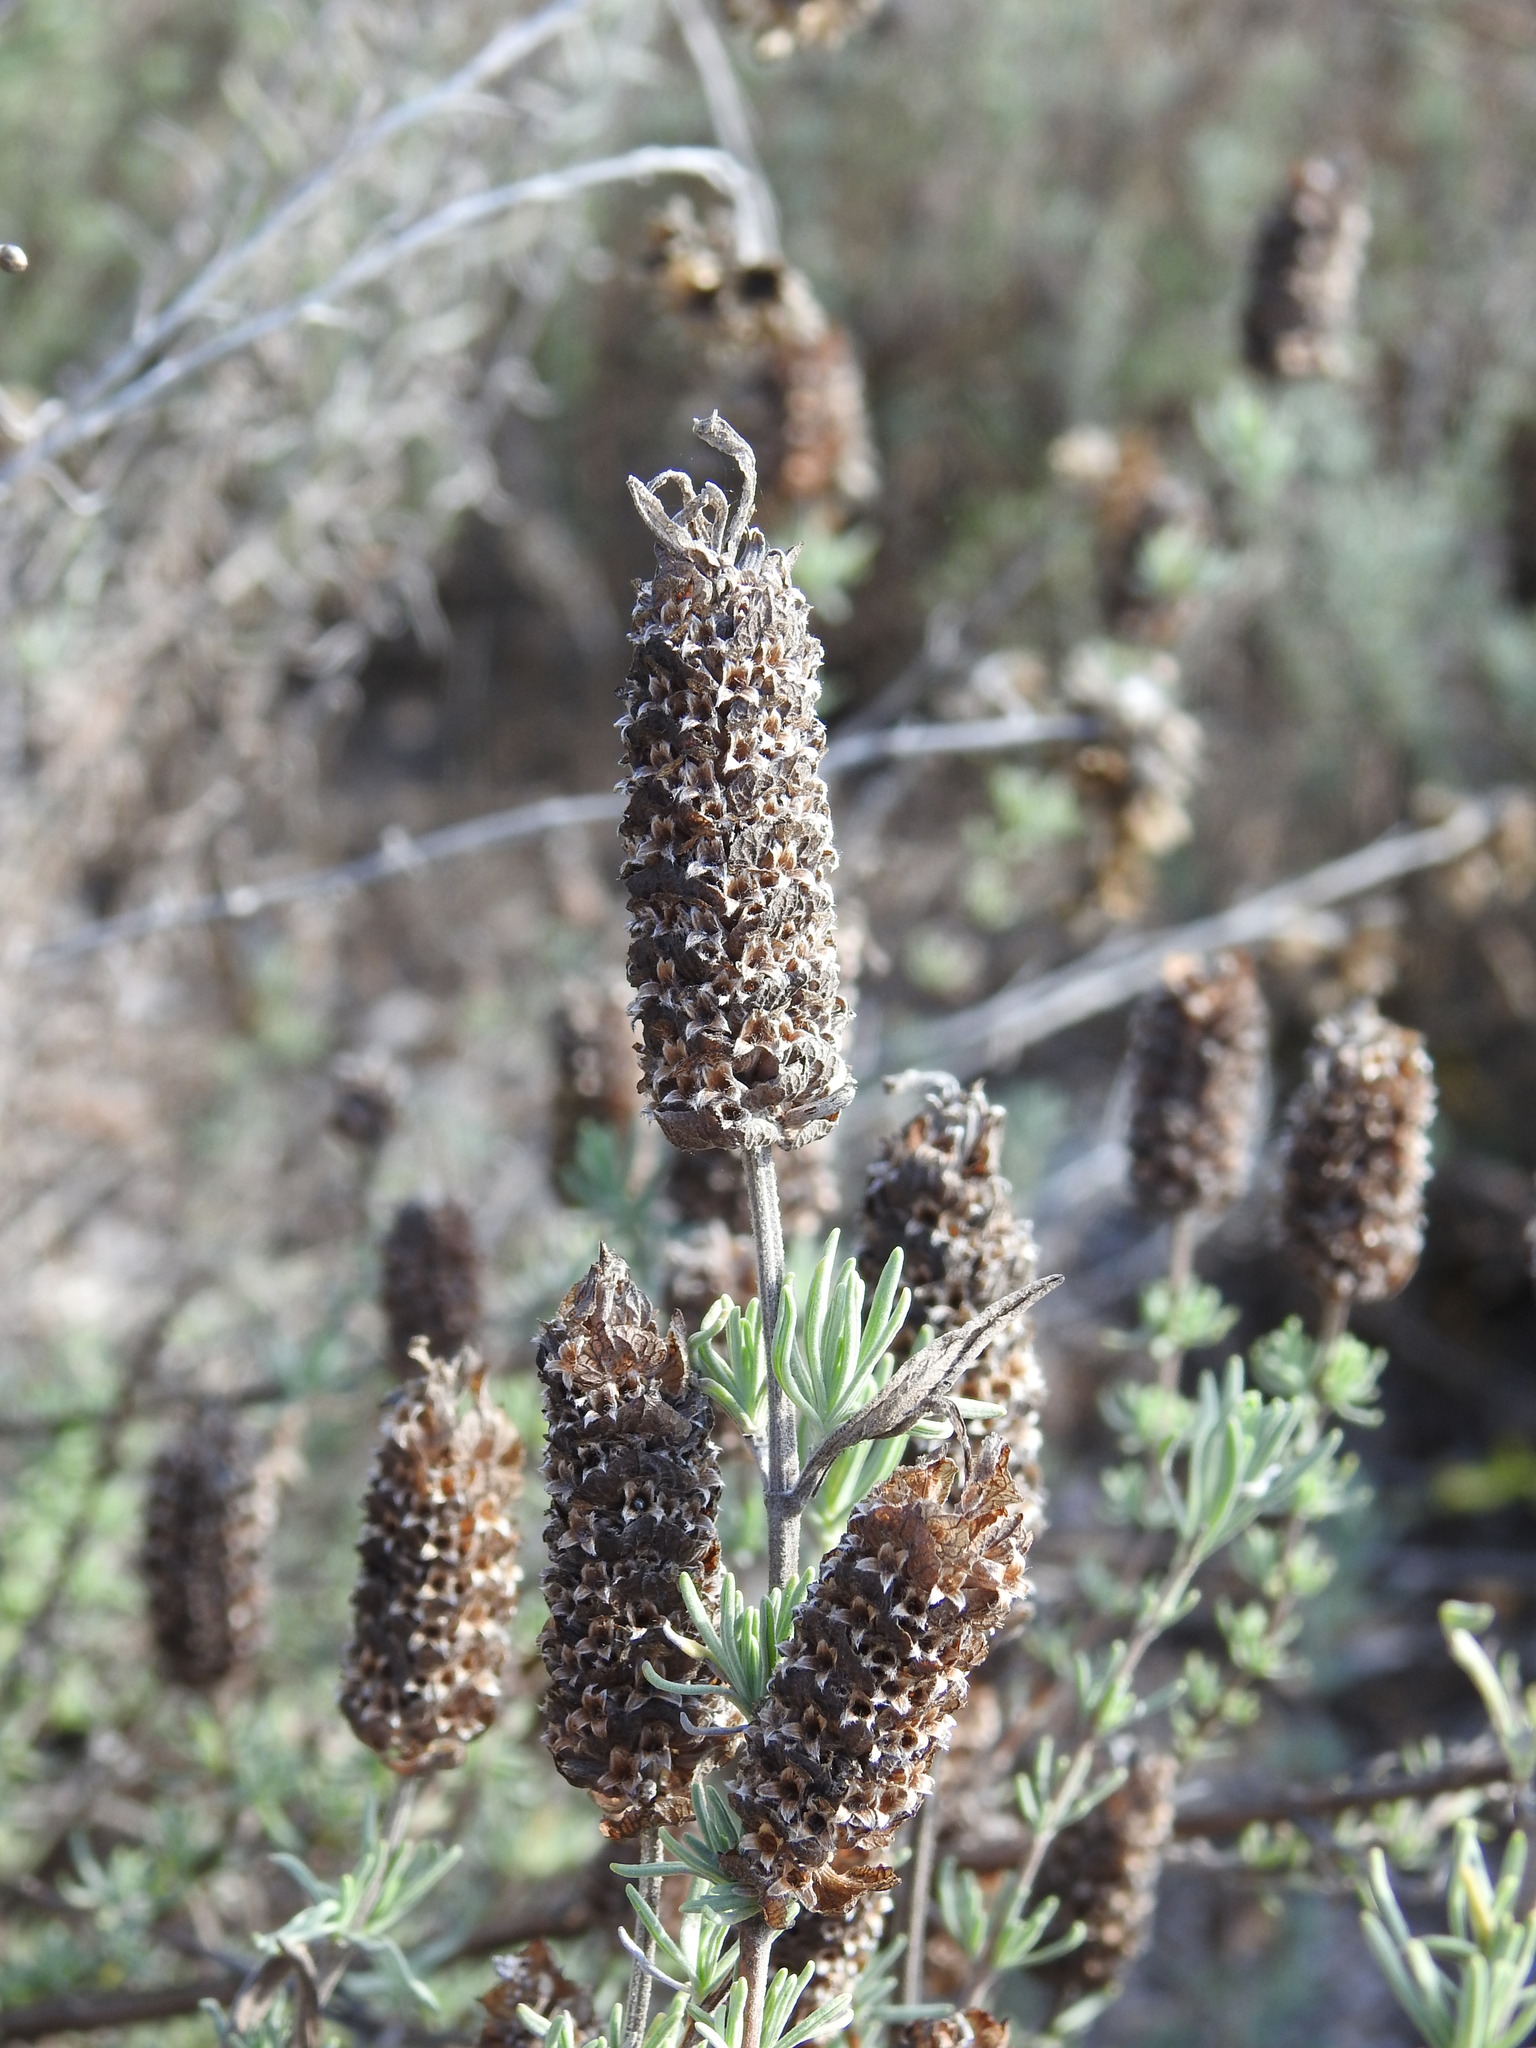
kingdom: Plantae
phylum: Tracheophyta
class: Magnoliopsida
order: Lamiales
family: Lamiaceae
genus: Lavandula
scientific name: Lavandula stoechas
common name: French lavender
